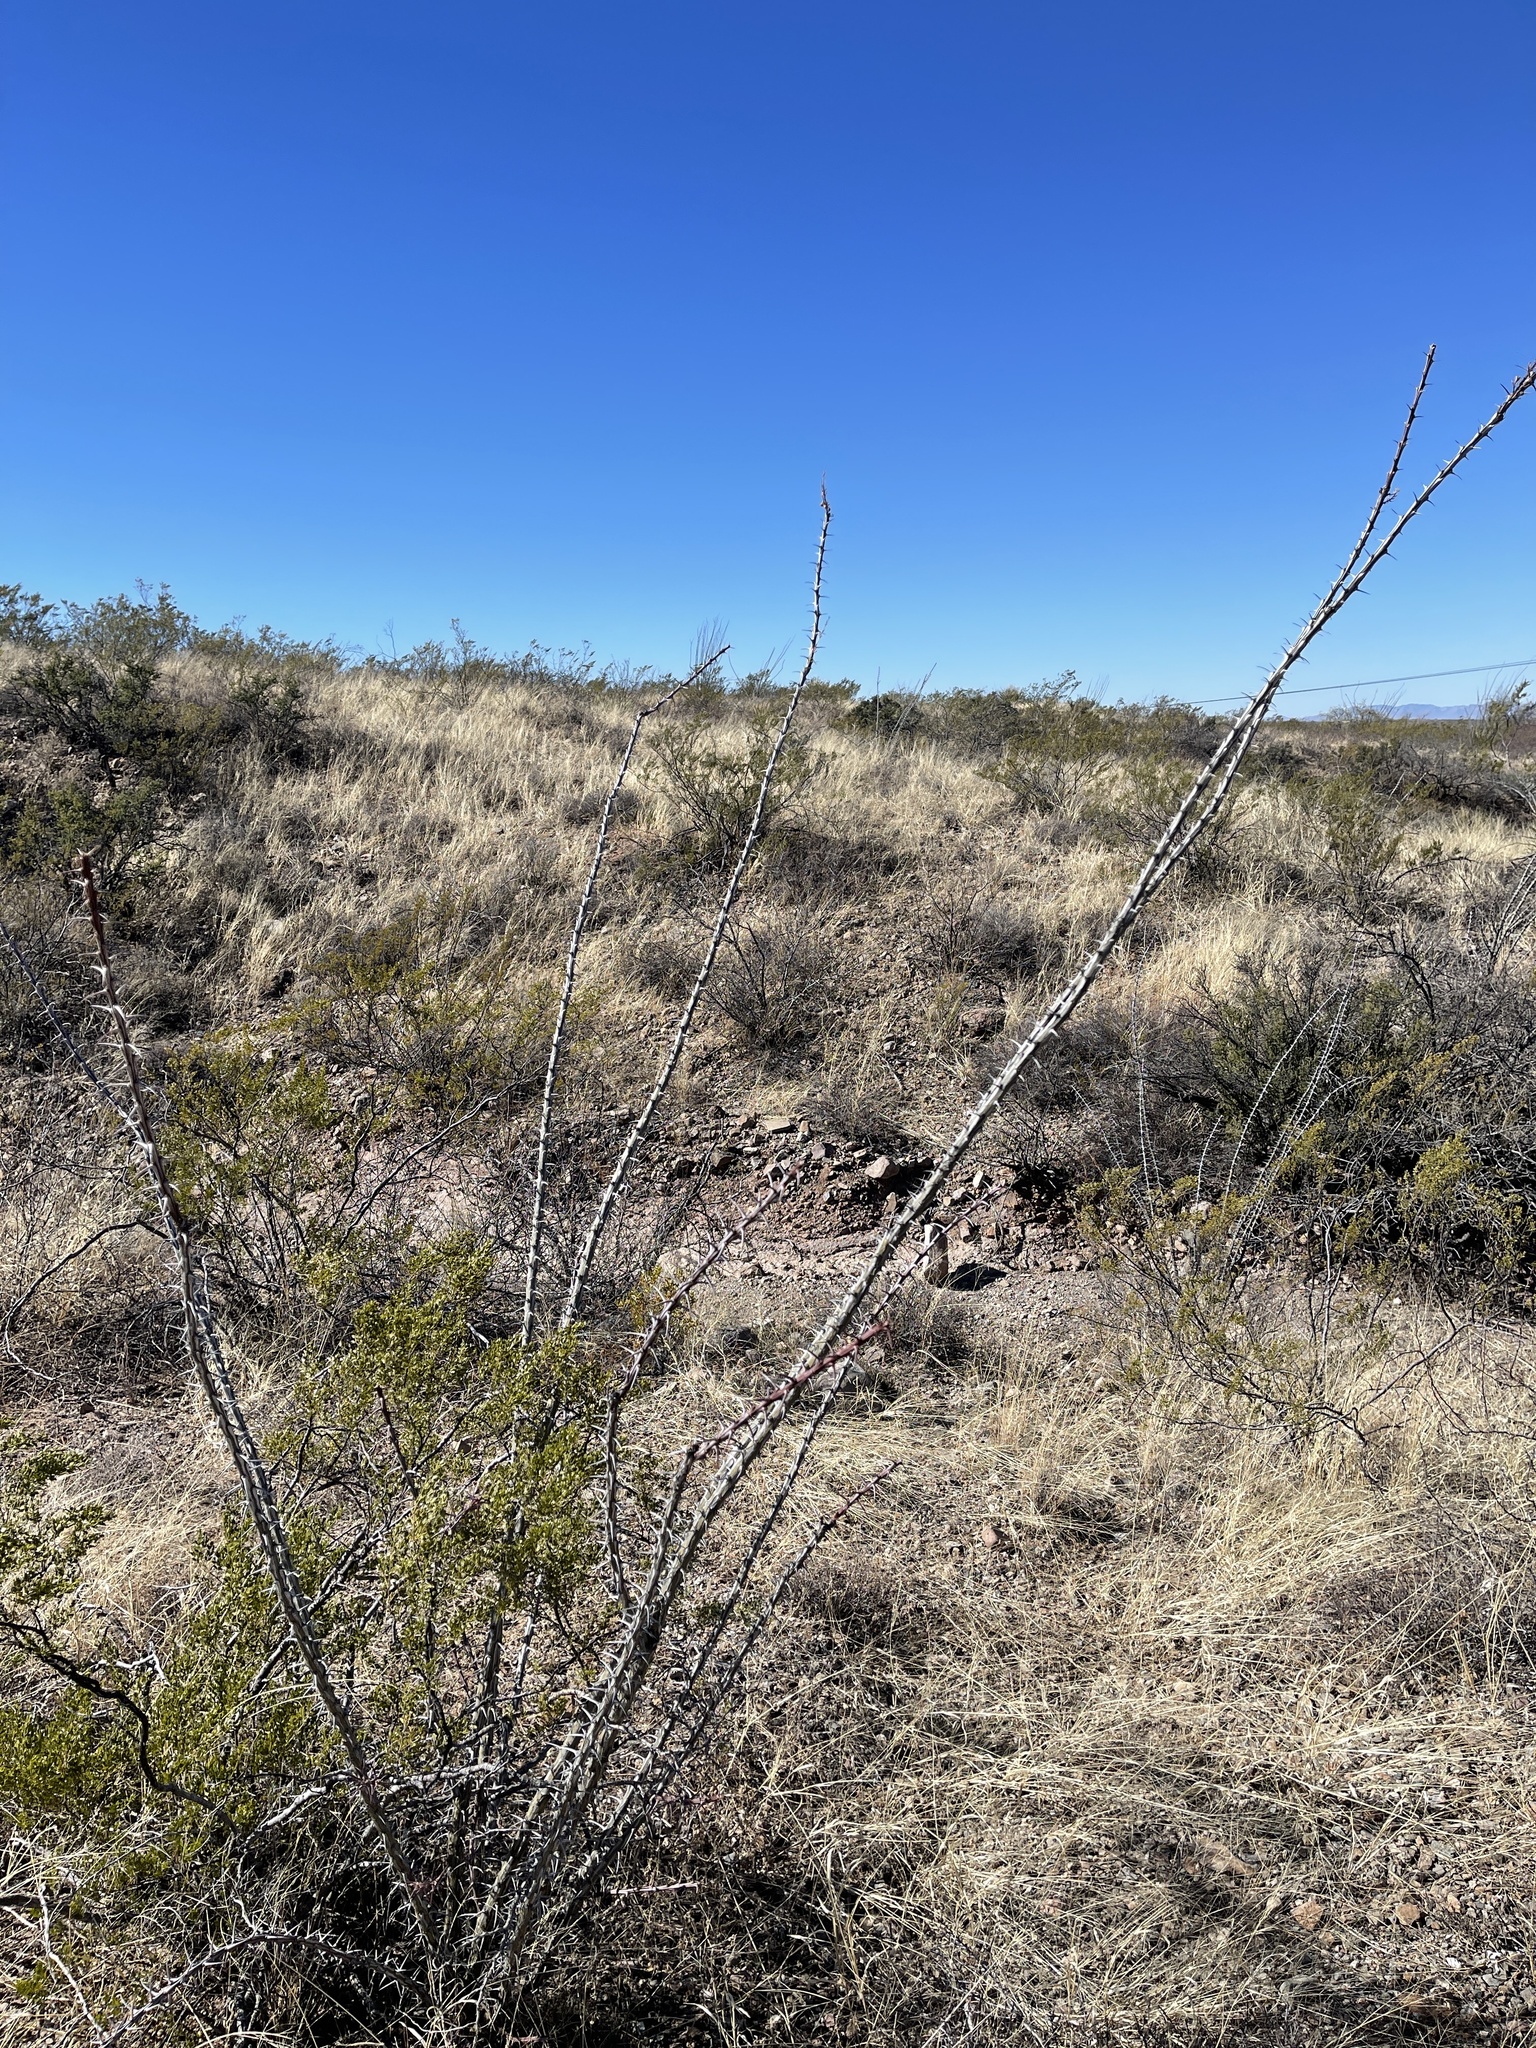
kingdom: Plantae
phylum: Tracheophyta
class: Magnoliopsida
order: Ericales
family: Fouquieriaceae
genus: Fouquieria
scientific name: Fouquieria splendens
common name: Vine-cactus
